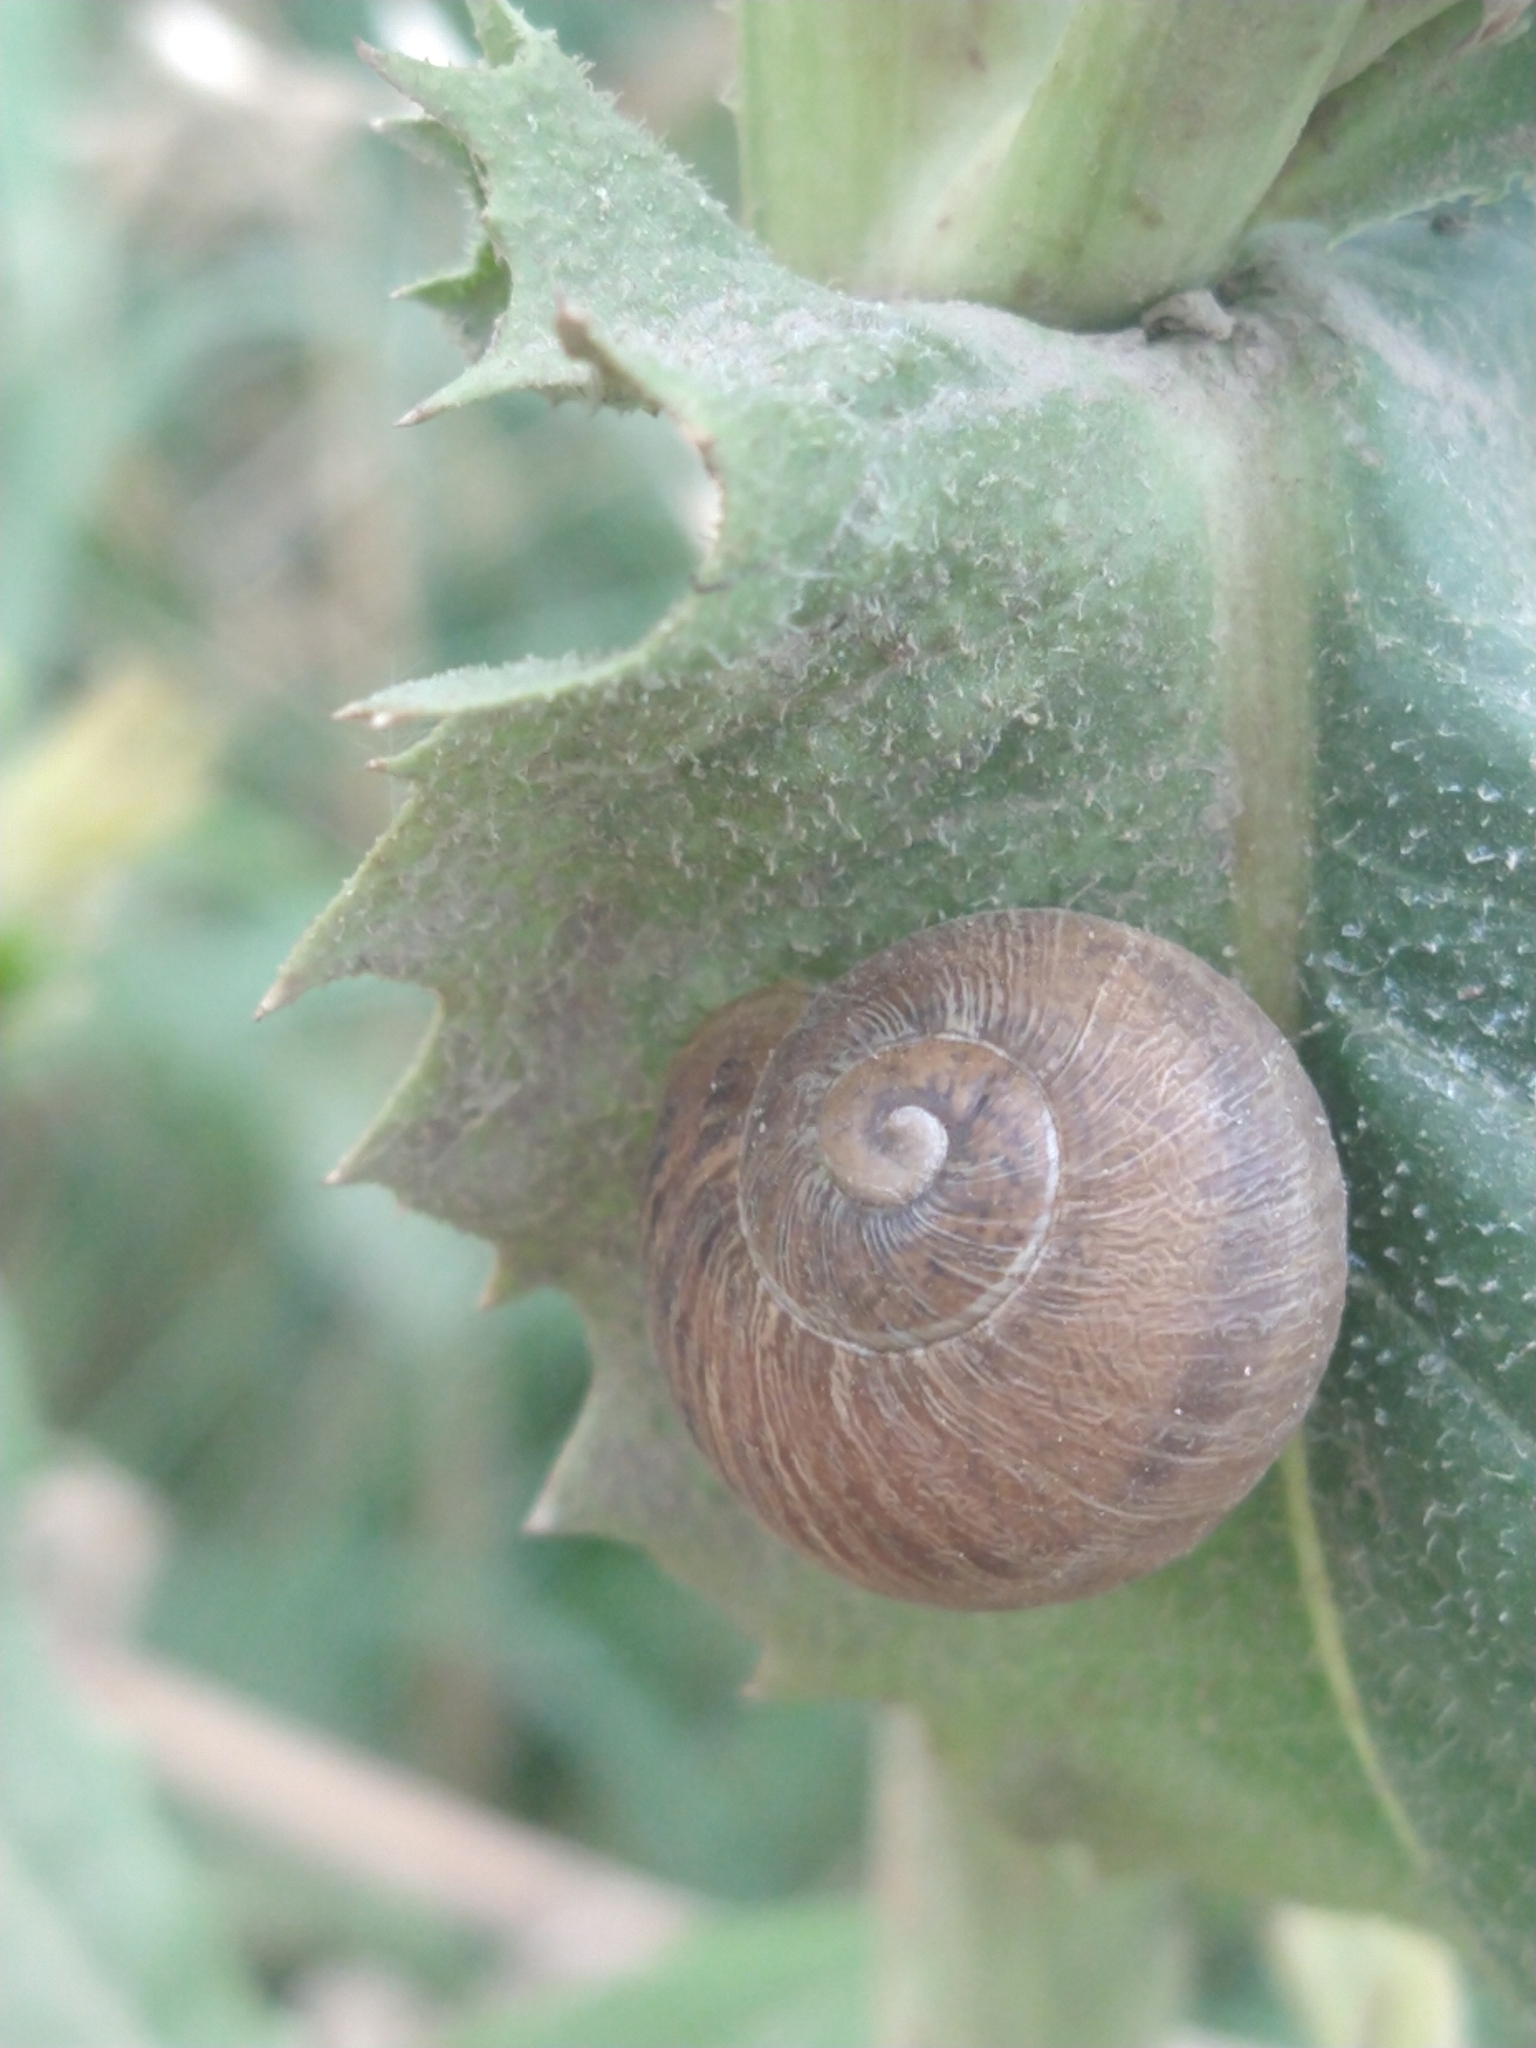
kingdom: Animalia
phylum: Mollusca
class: Gastropoda
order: Stylommatophora
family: Helicidae
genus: Cornu
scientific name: Cornu aspersum
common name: Brown garden snail
